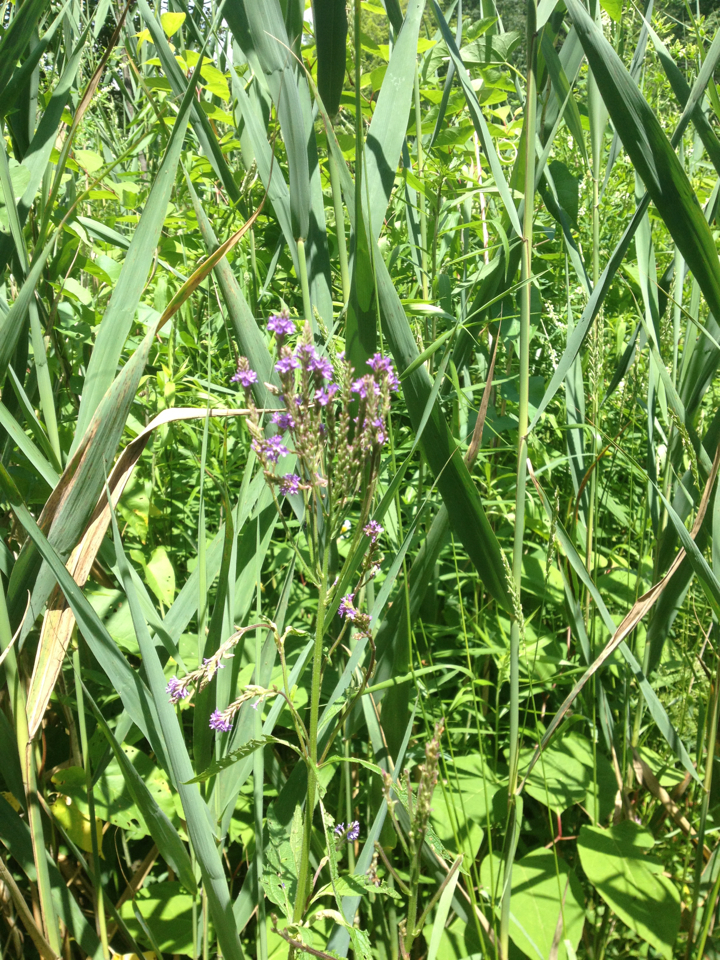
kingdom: Plantae
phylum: Tracheophyta
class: Magnoliopsida
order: Lamiales
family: Verbenaceae
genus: Verbena
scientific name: Verbena hastata
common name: American blue vervain
